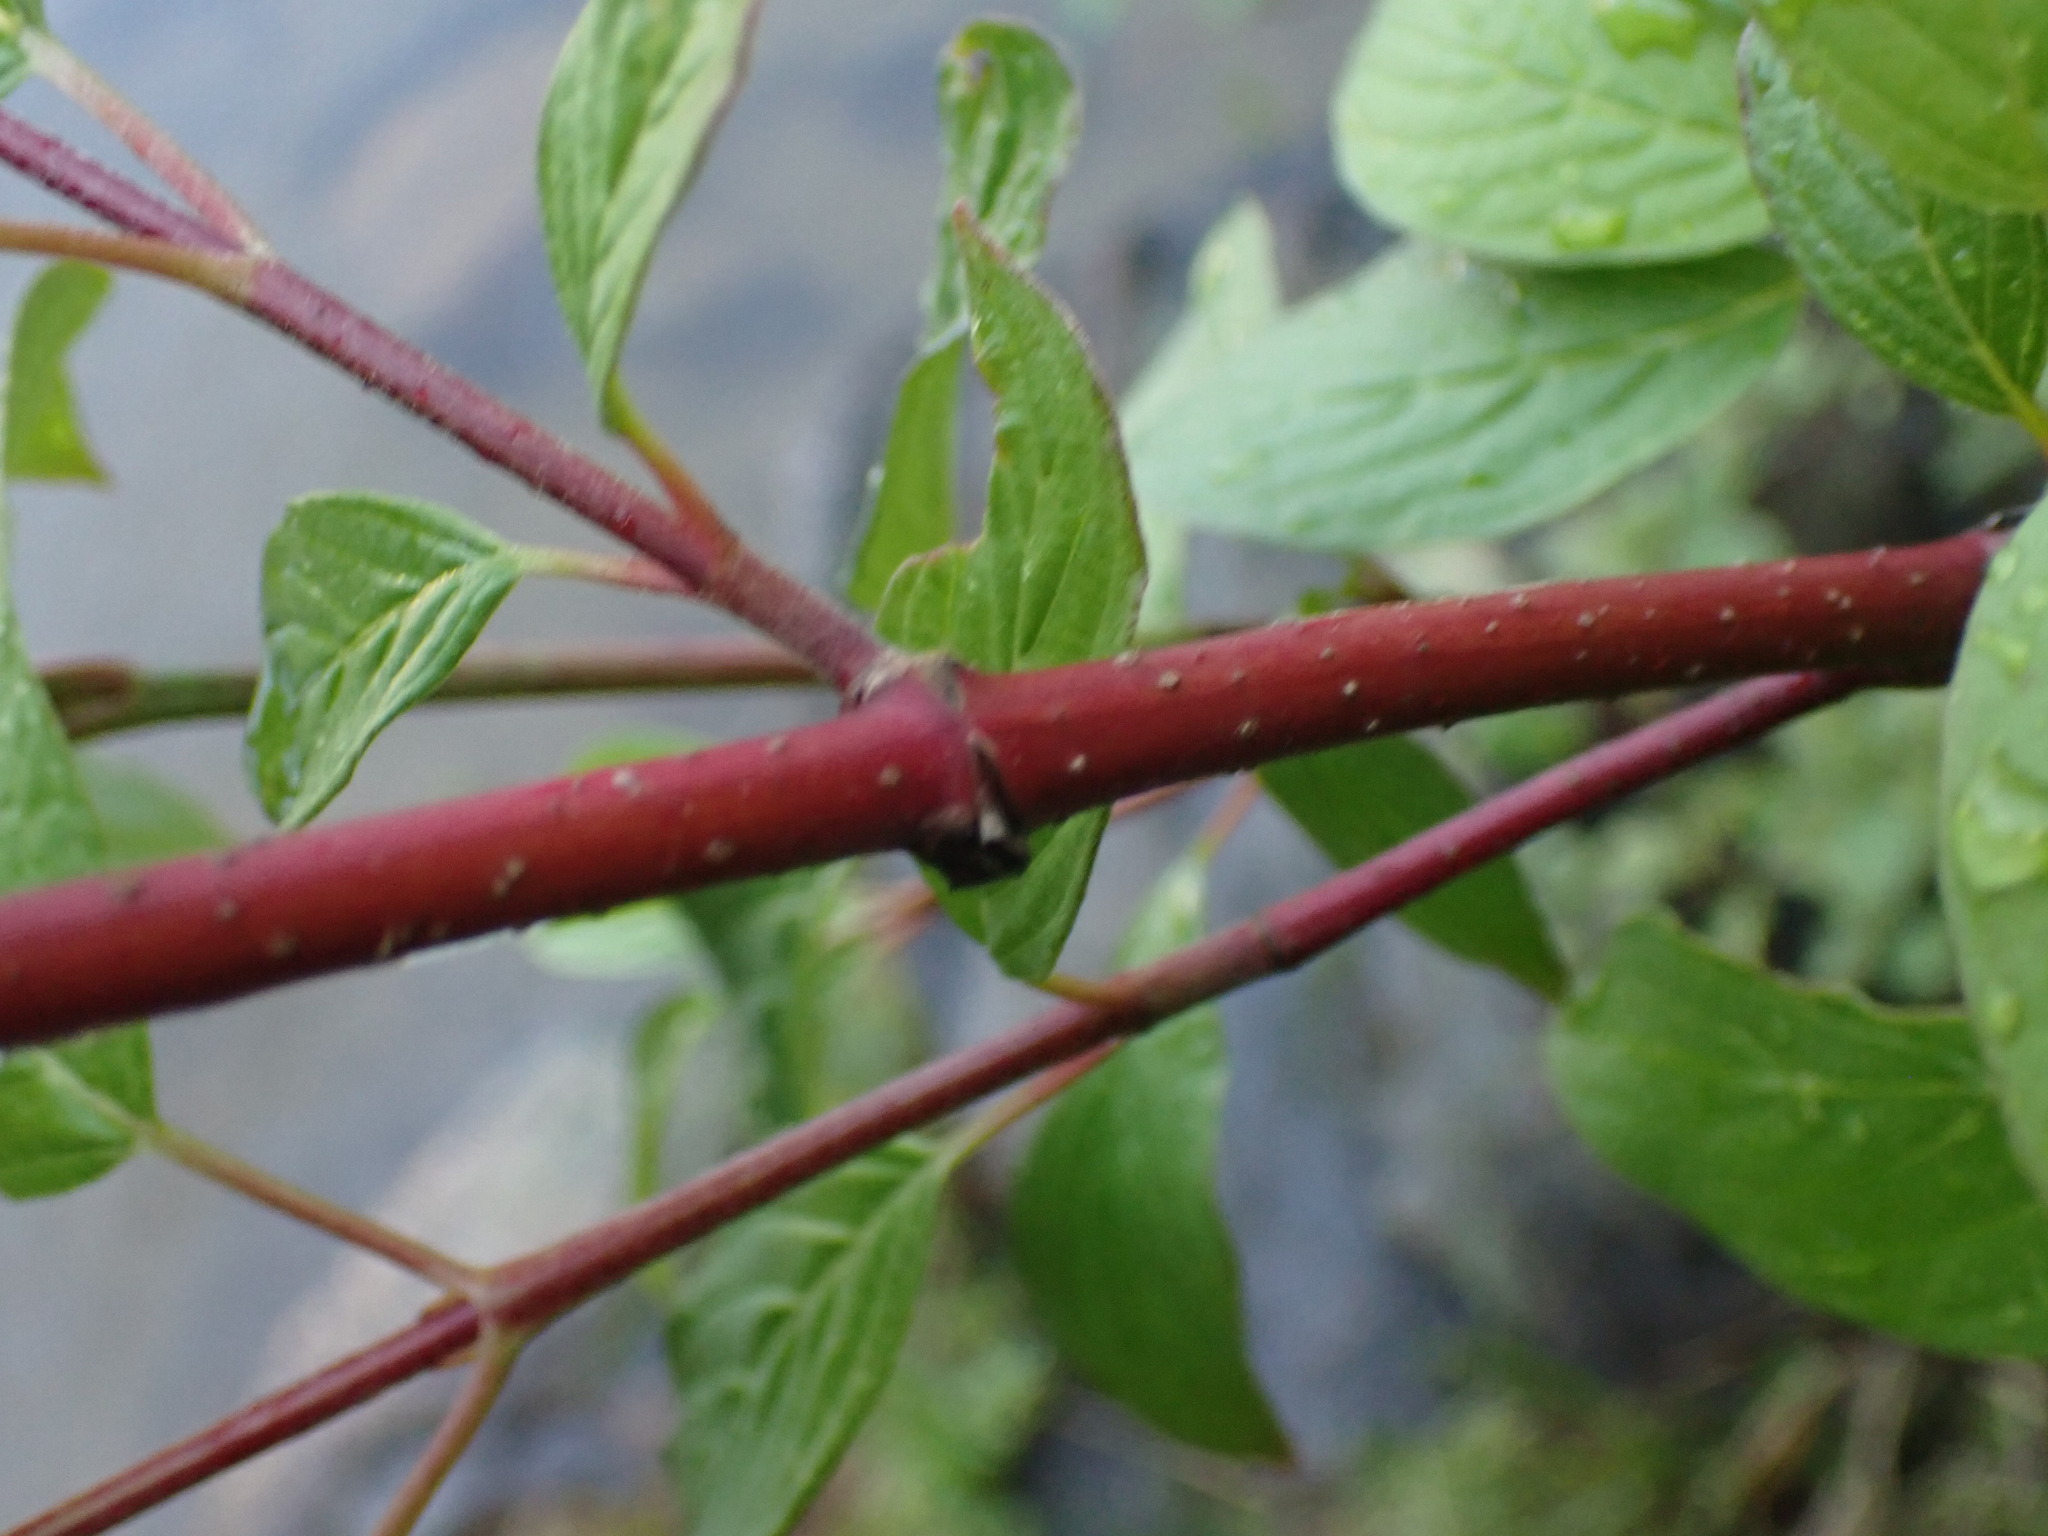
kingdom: Plantae
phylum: Tracheophyta
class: Magnoliopsida
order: Cornales
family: Cornaceae
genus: Cornus
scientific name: Cornus sericea
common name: Red-osier dogwood
